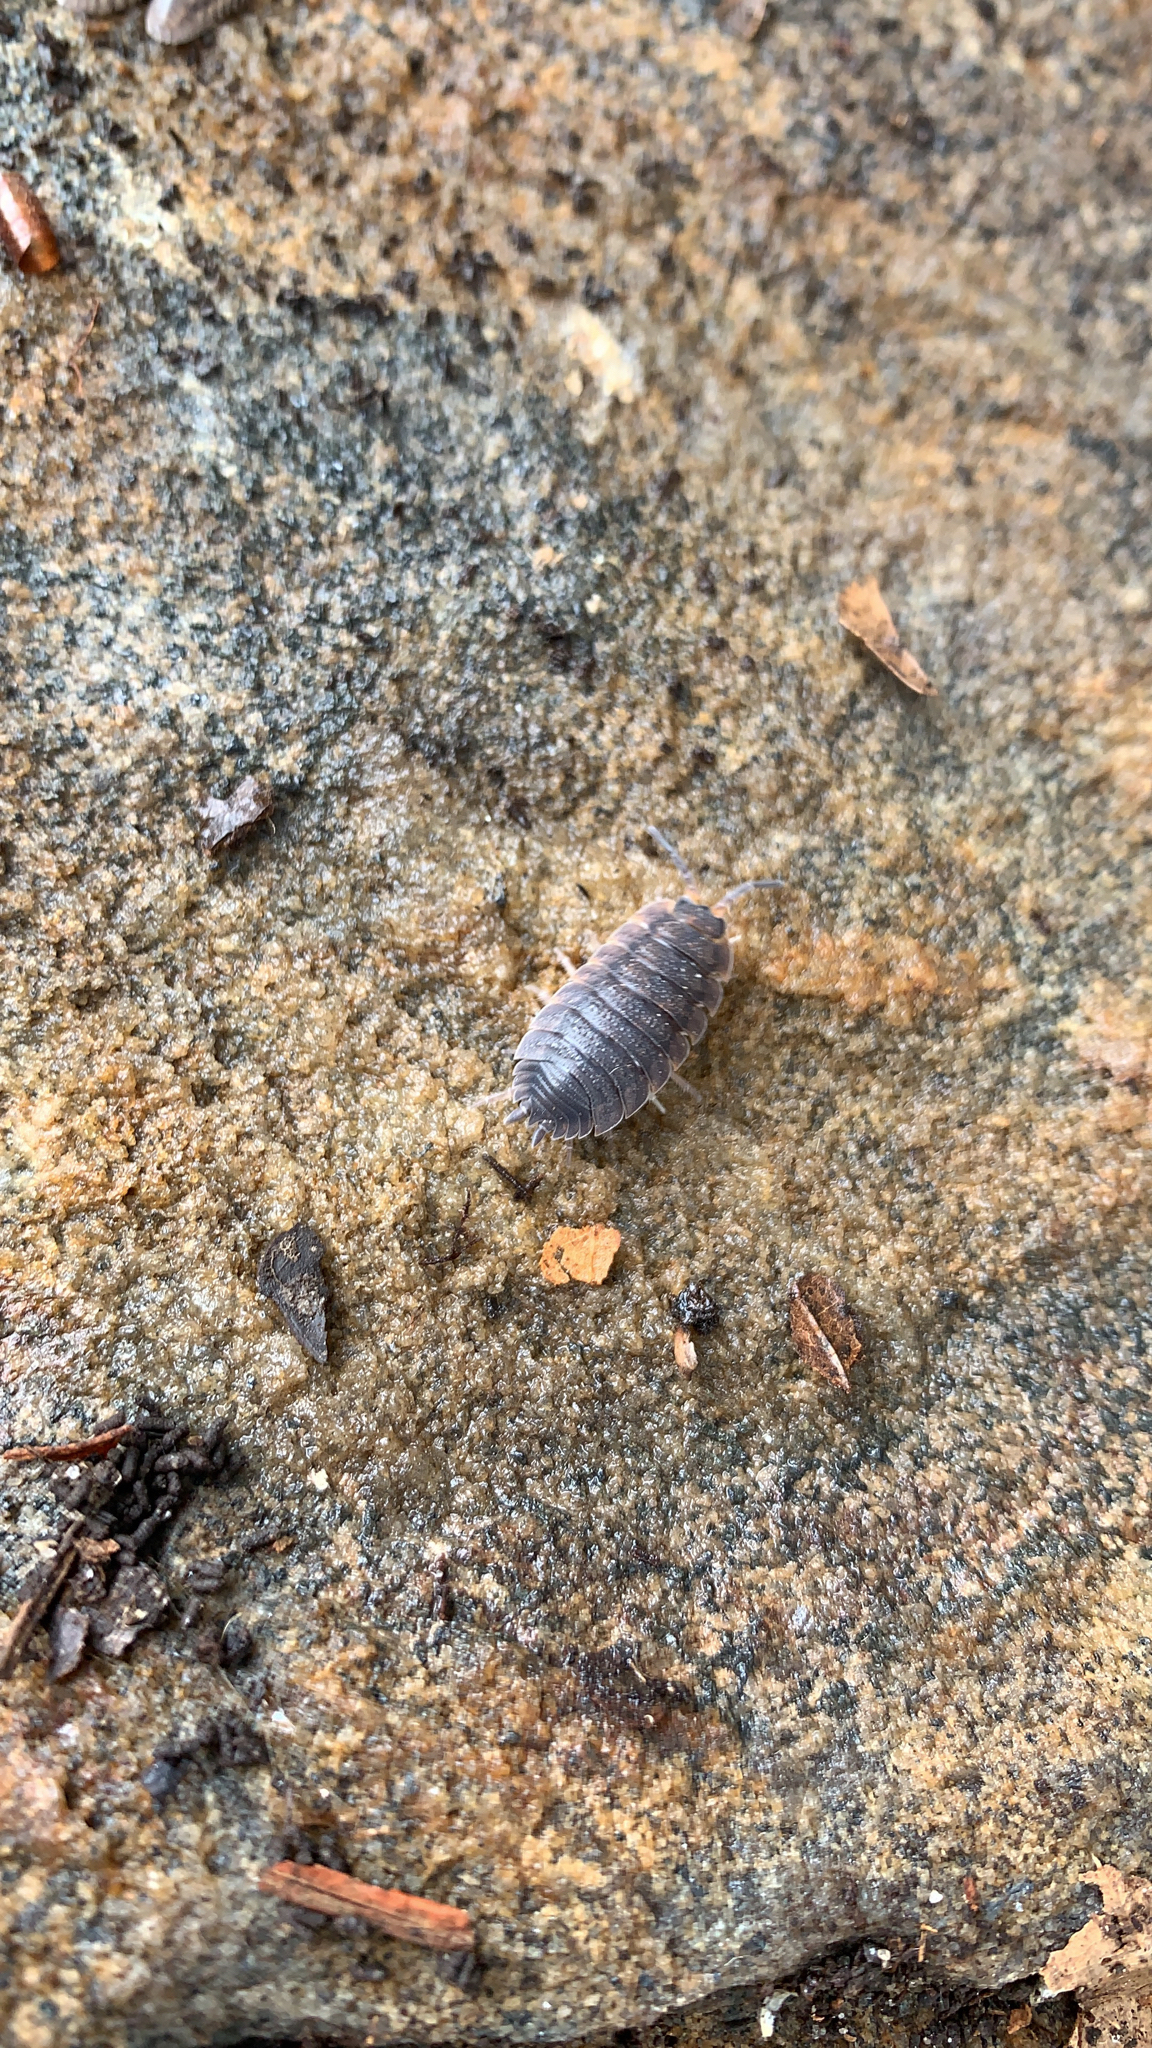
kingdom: Animalia
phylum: Arthropoda
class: Malacostraca
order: Isopoda
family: Porcellionidae
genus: Porcellio
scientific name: Porcellio scaber
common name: Common rough woodlouse
